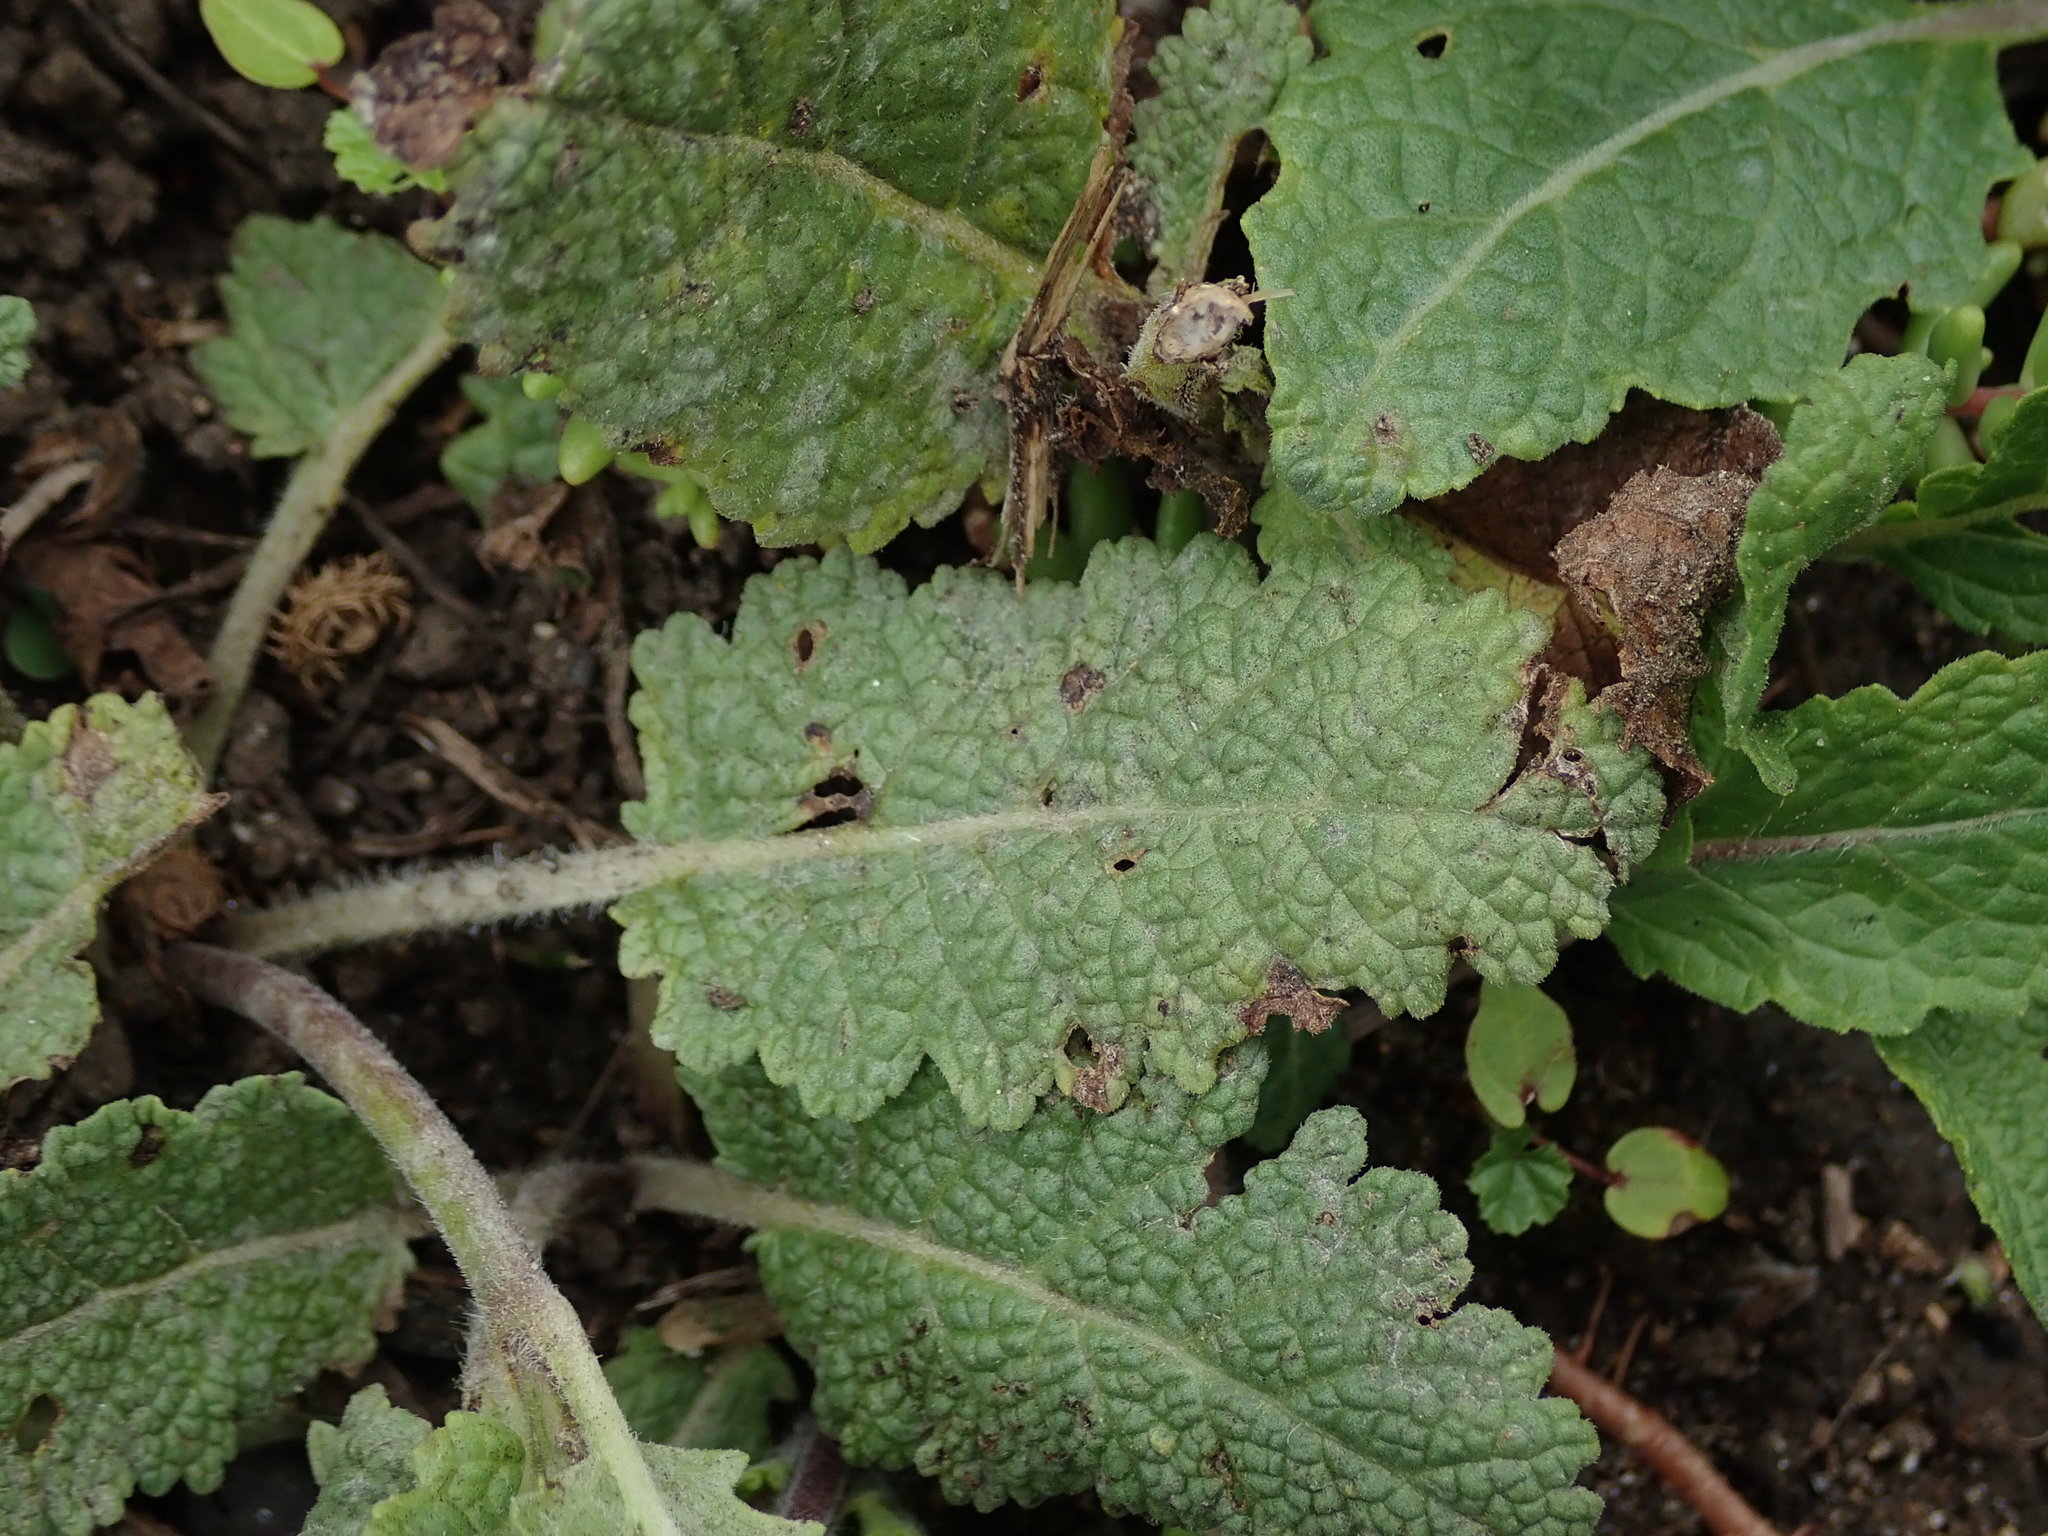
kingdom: Plantae
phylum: Tracheophyta
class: Magnoliopsida
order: Lamiales
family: Lamiaceae
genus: Salvia
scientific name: Salvia verbenaca
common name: Wild clary
